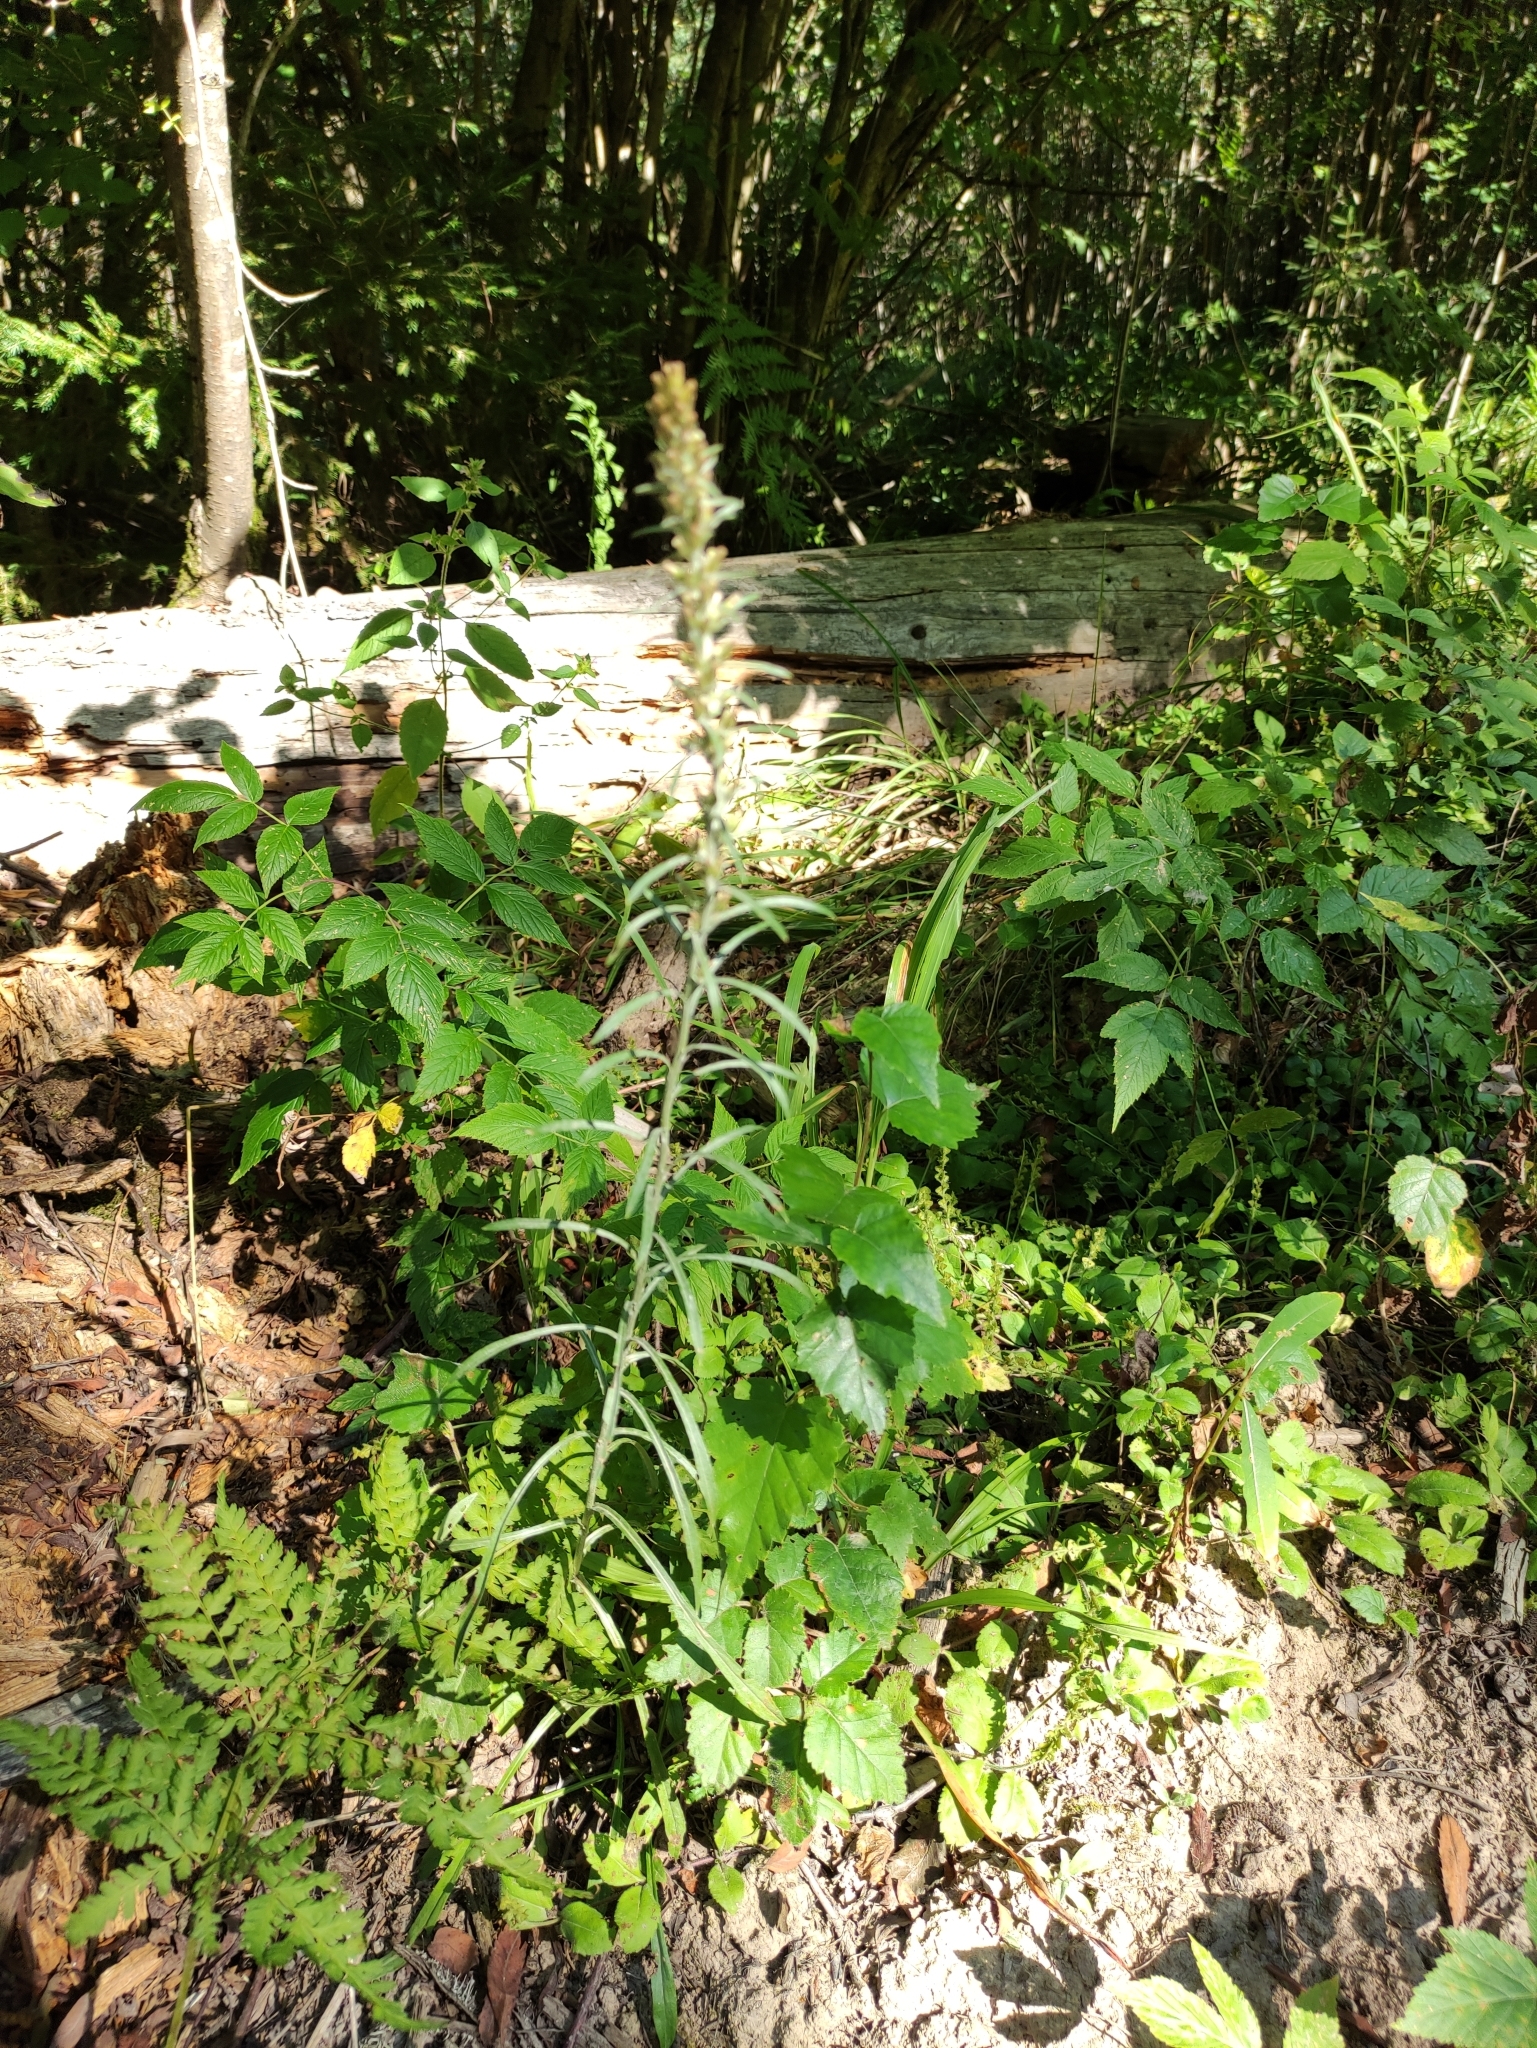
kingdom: Plantae
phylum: Tracheophyta
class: Magnoliopsida
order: Asterales
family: Asteraceae
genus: Omalotheca
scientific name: Omalotheca sylvatica
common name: Heath cudweed
